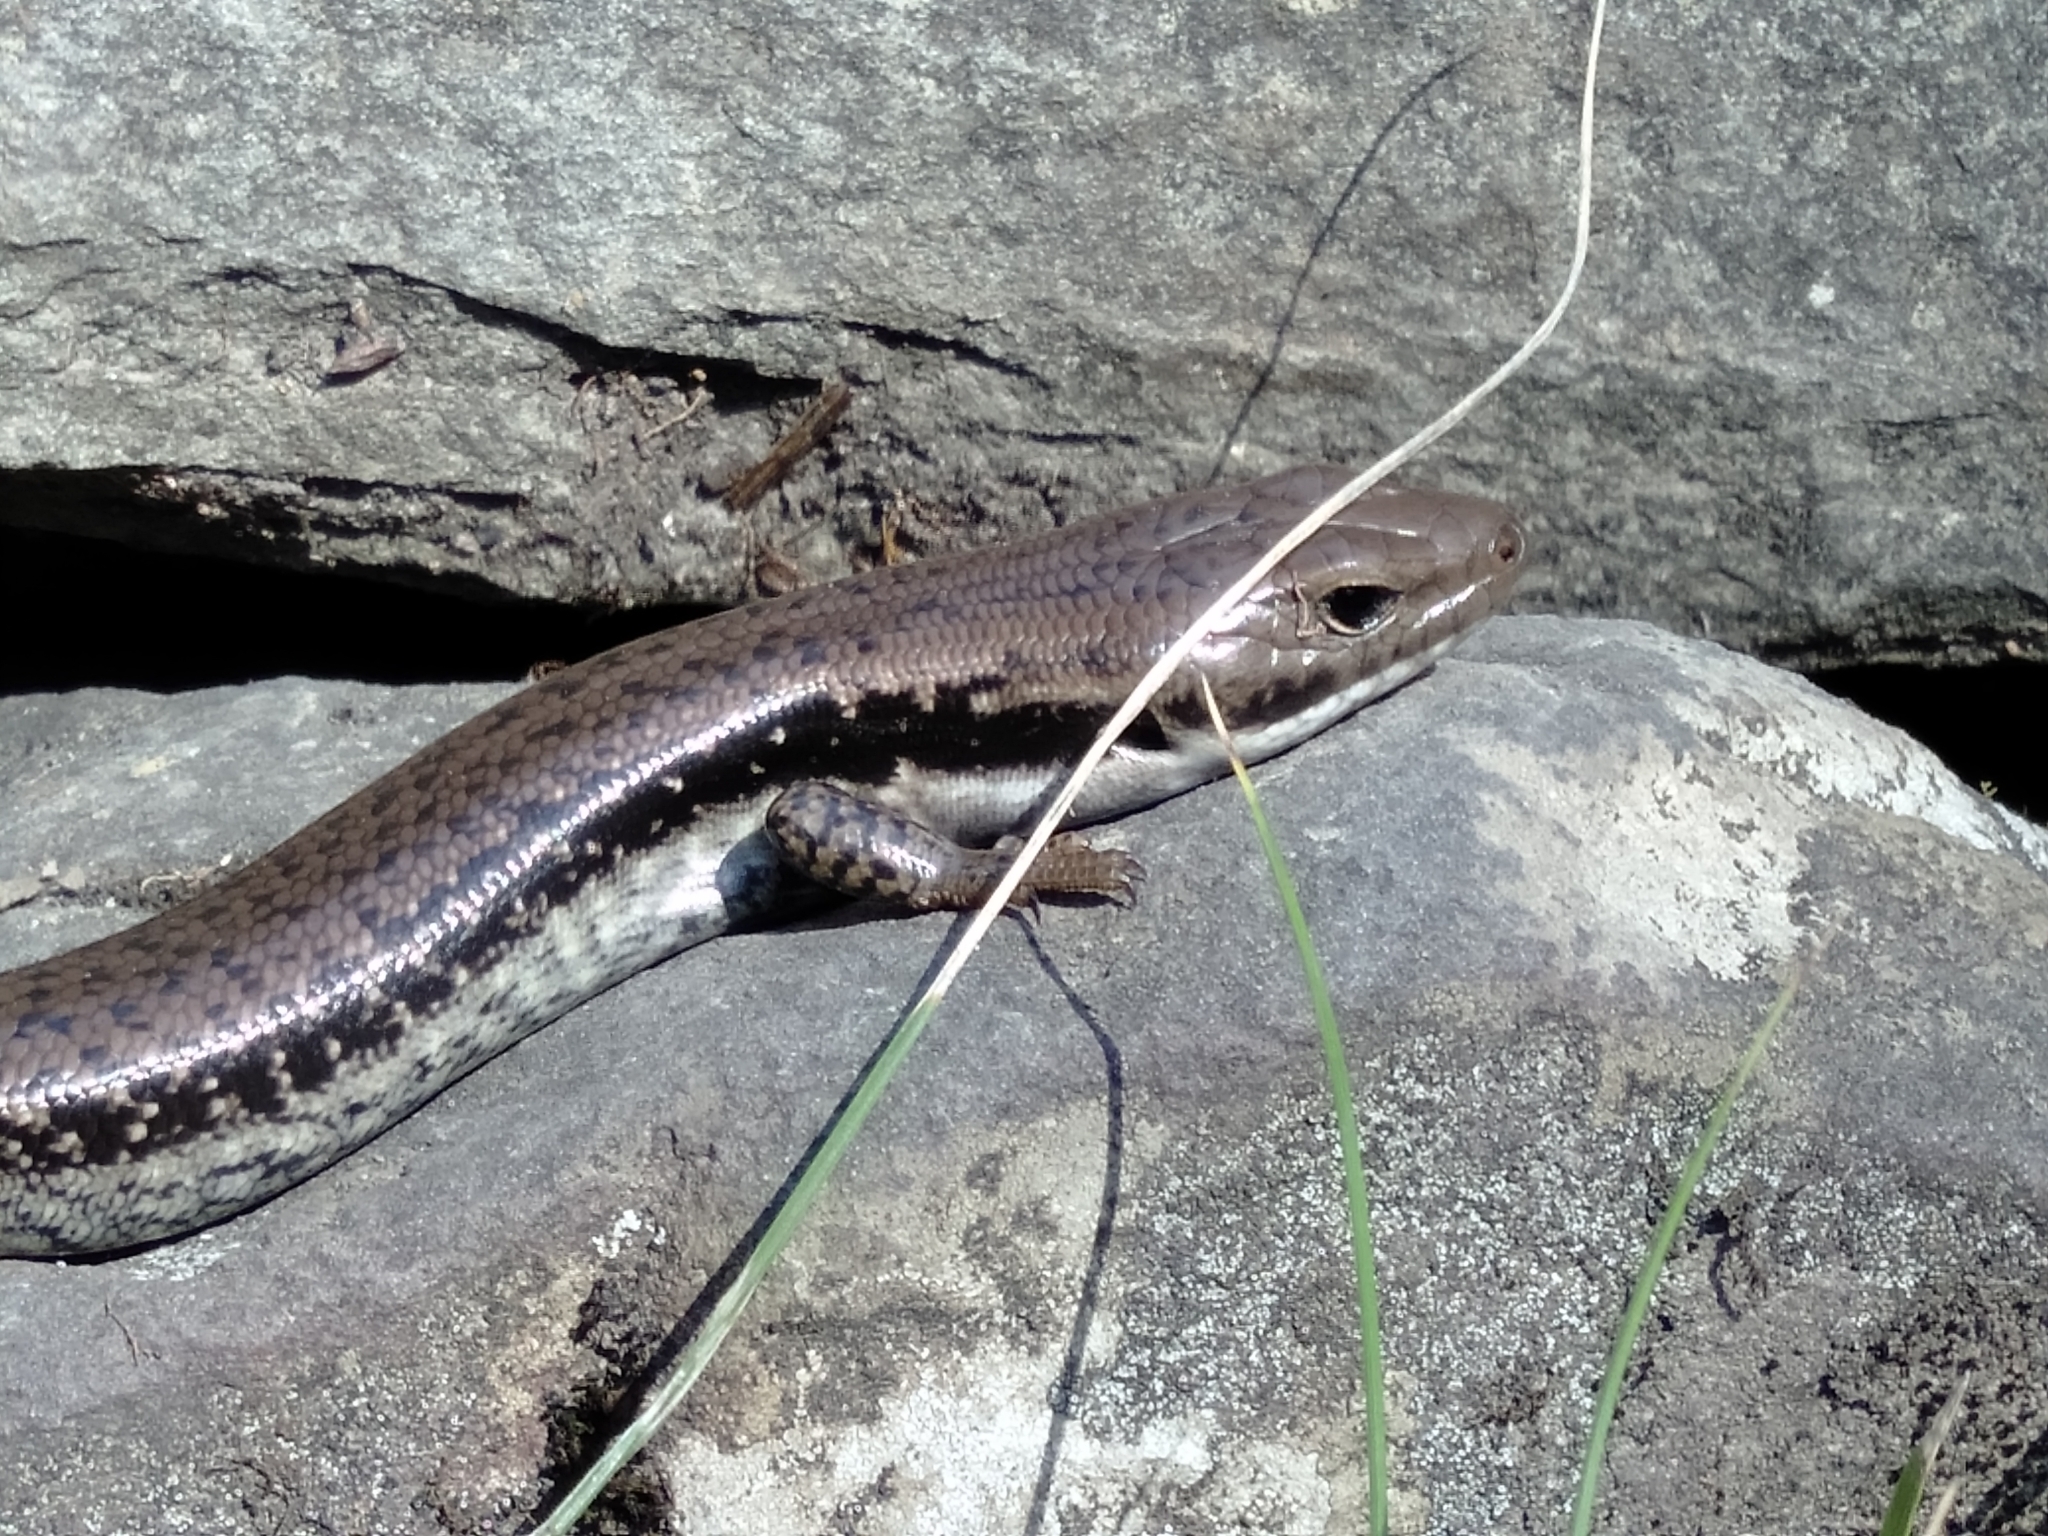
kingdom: Animalia
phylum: Chordata
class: Squamata
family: Scincidae
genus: Eulamprus
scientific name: Eulamprus tympanum
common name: Cool-temperate water-skink
